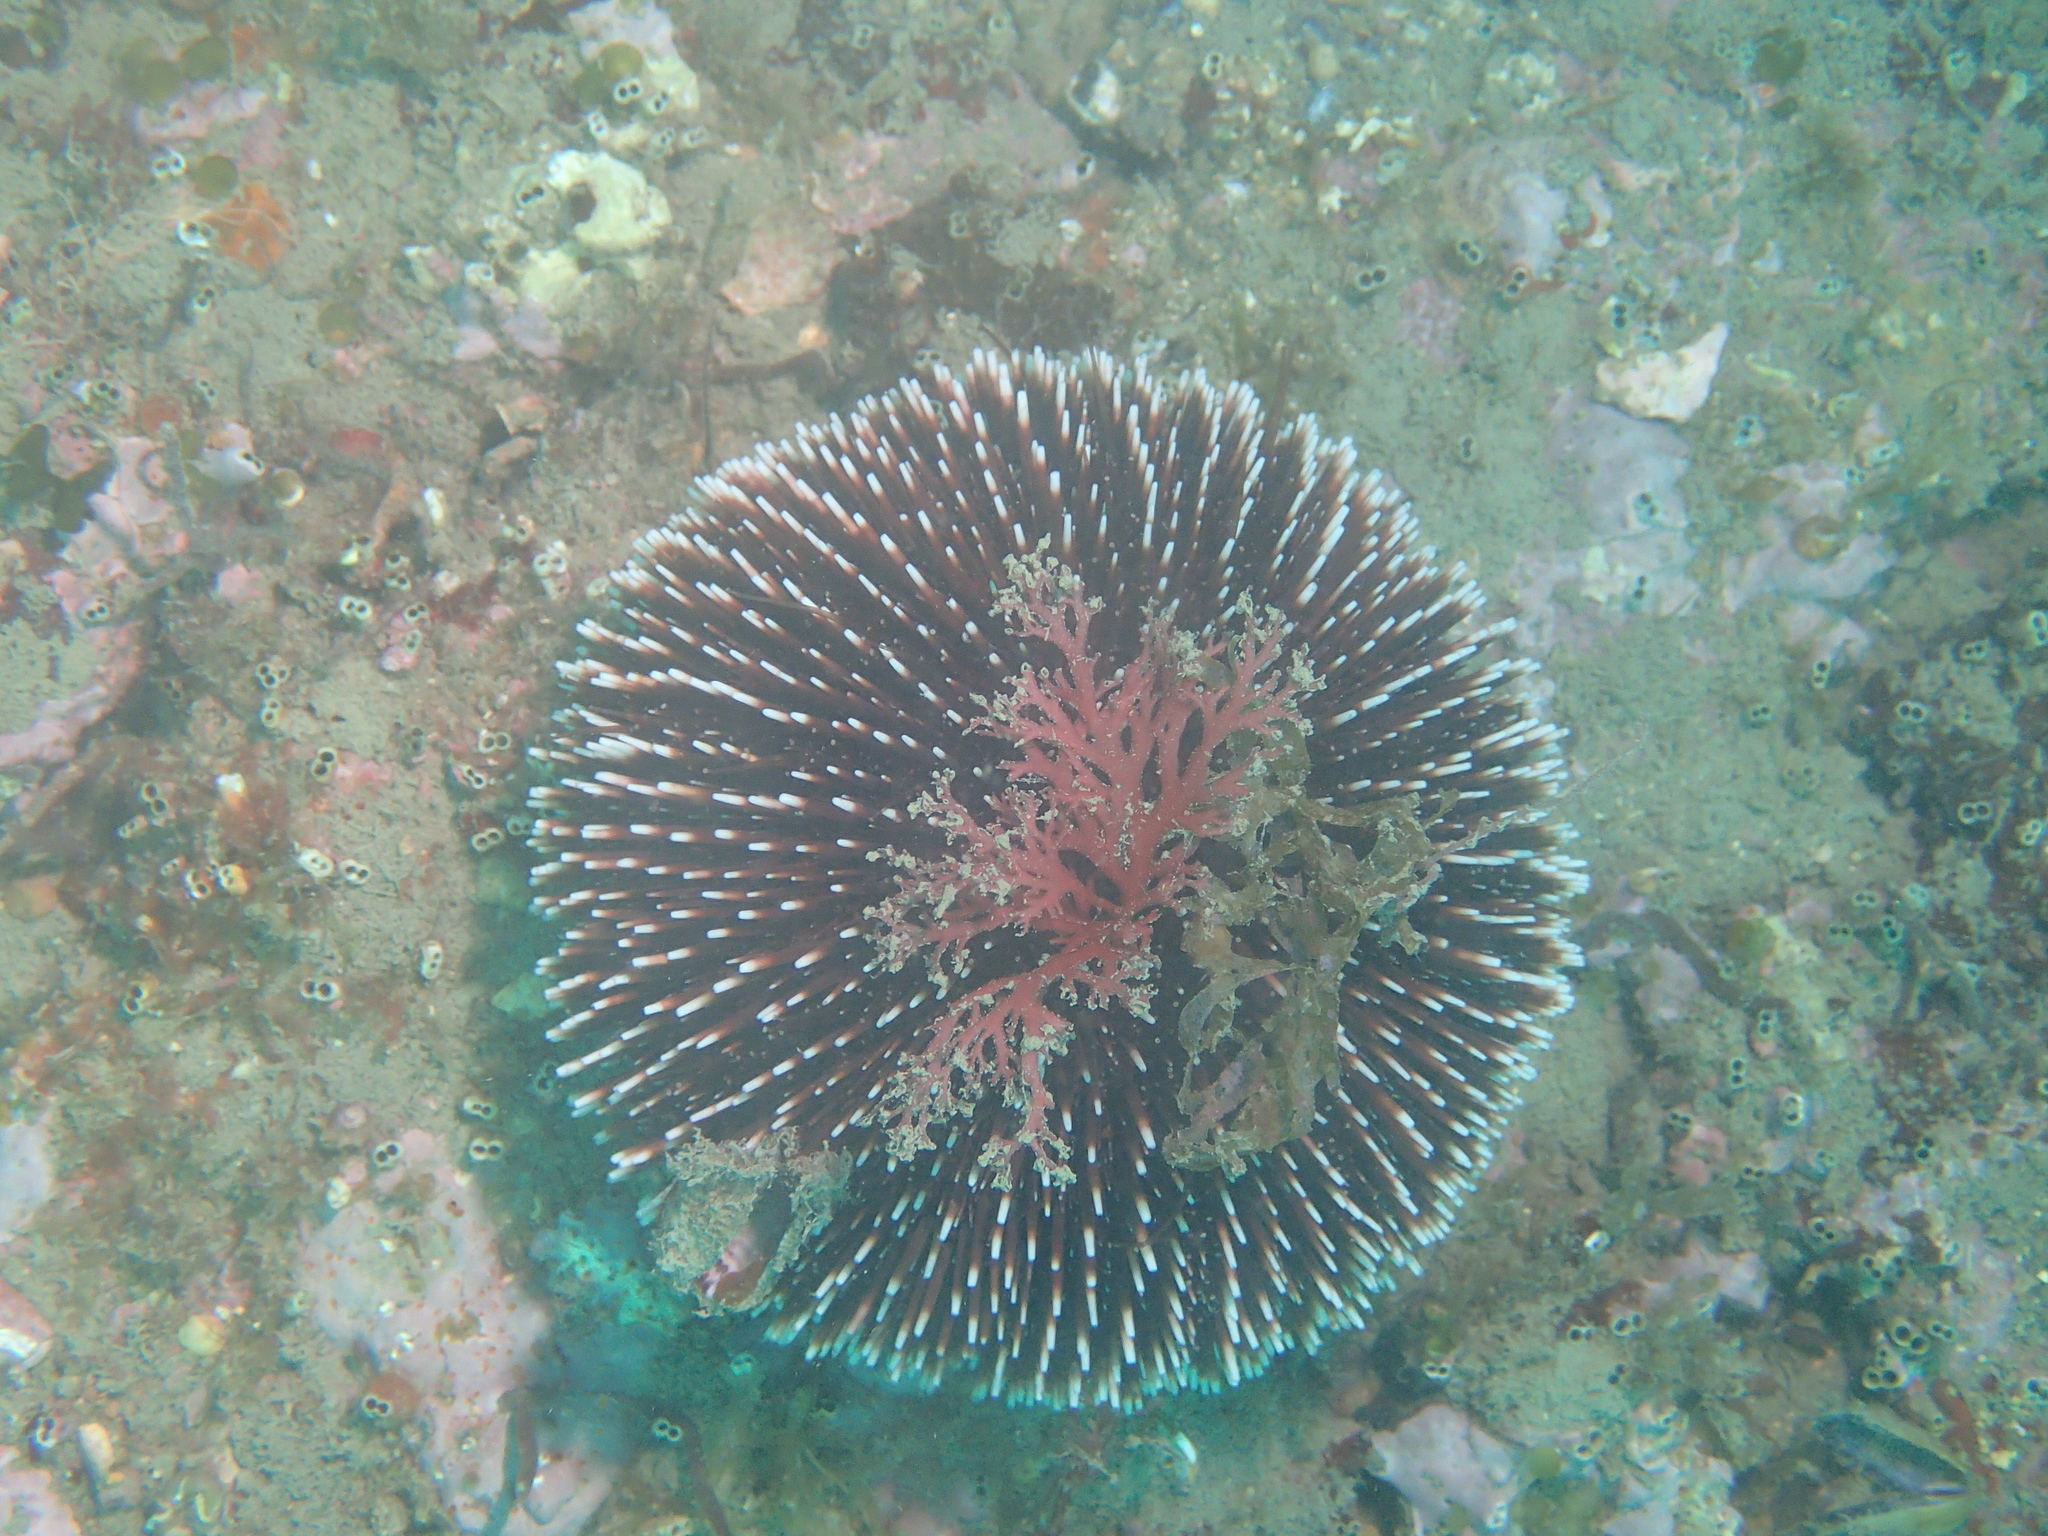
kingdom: Animalia
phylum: Echinodermata
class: Echinoidea
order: Camarodonta
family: Toxopneustidae
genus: Sphaerechinus
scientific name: Sphaerechinus granularis
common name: Violet sea urchin
